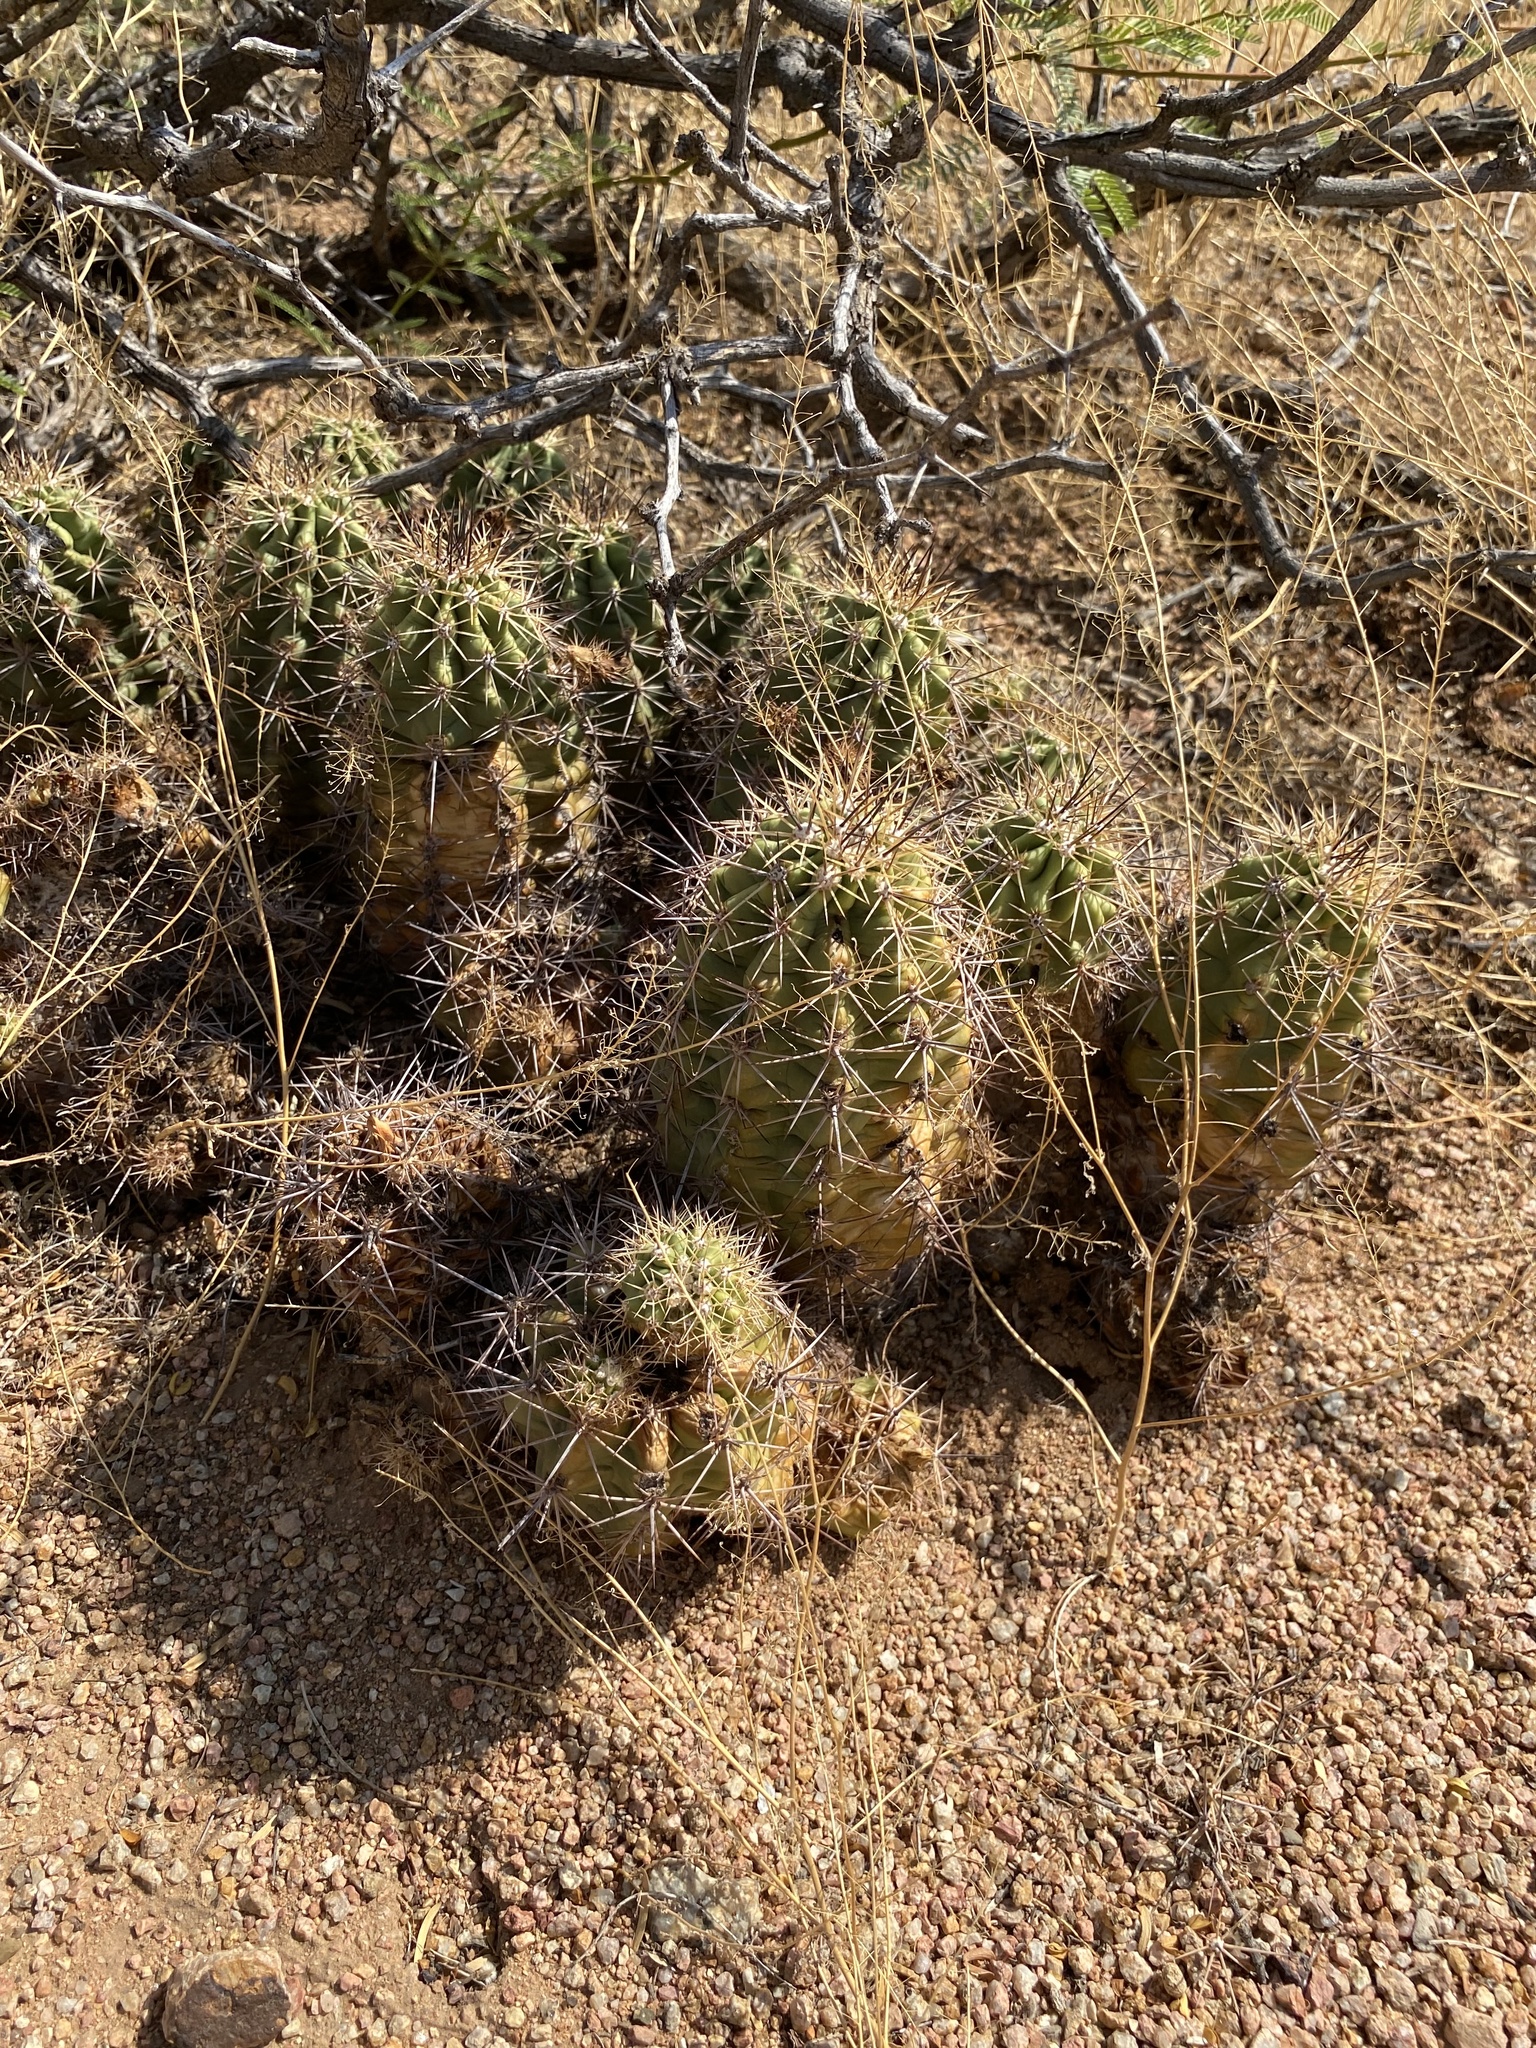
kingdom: Plantae
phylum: Tracheophyta
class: Magnoliopsida
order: Caryophyllales
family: Cactaceae
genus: Echinocereus
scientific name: Echinocereus coccineus
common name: Scarlet hedgehog cactus
